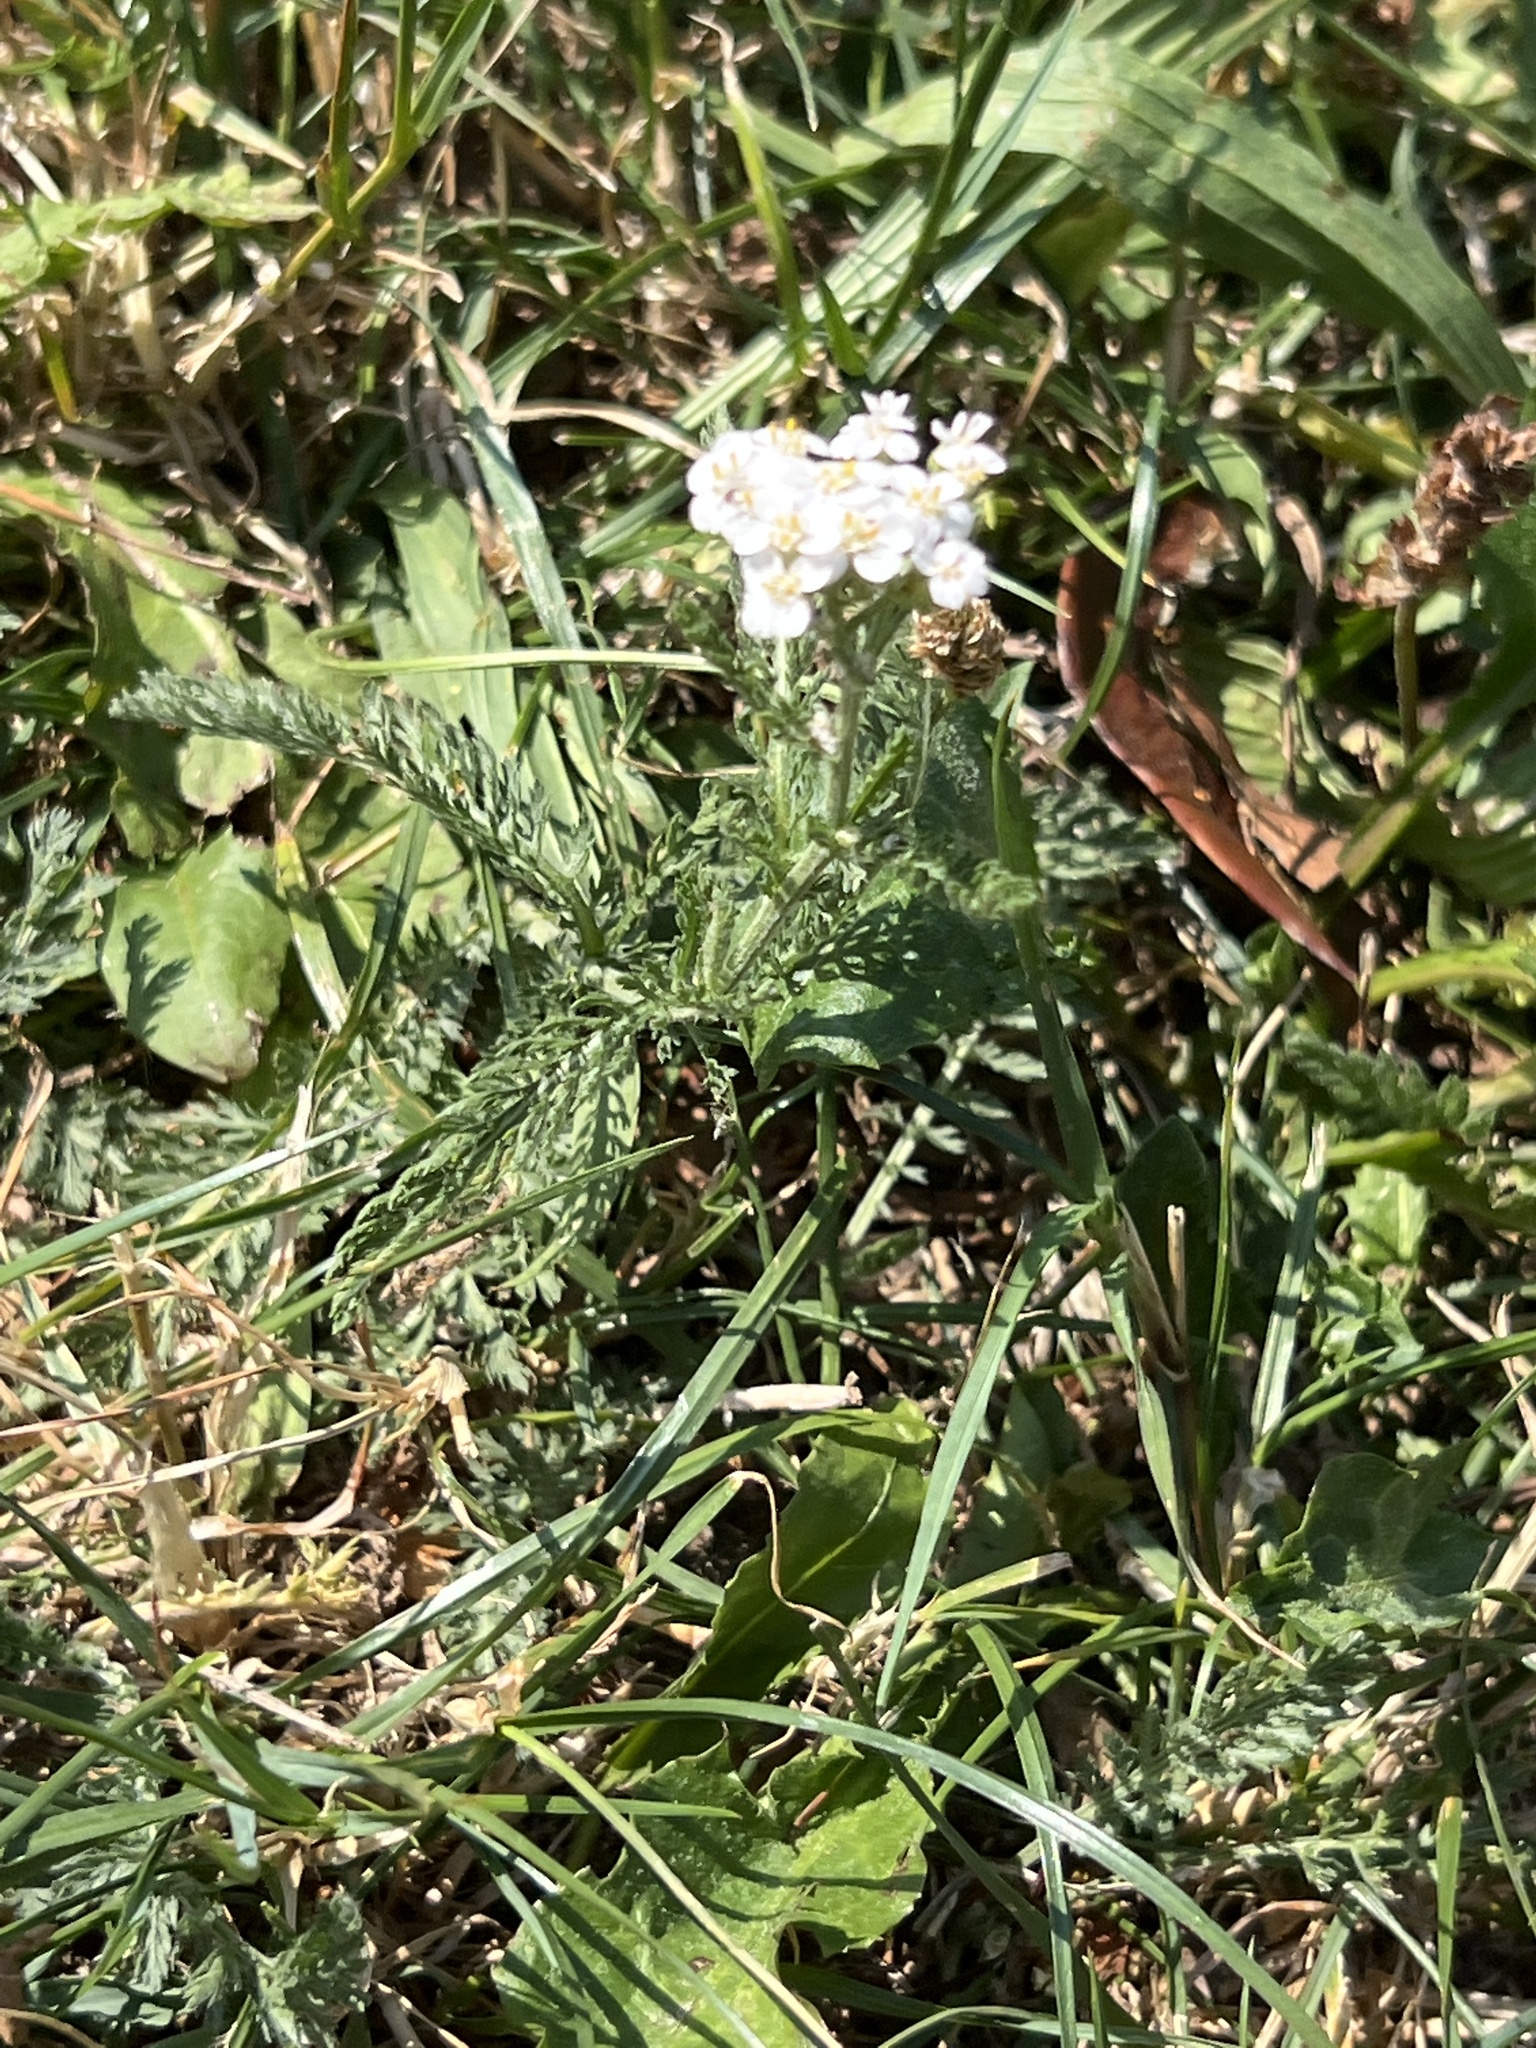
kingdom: Plantae
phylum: Tracheophyta
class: Magnoliopsida
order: Asterales
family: Asteraceae
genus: Achillea
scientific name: Achillea millefolium
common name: Yarrow
